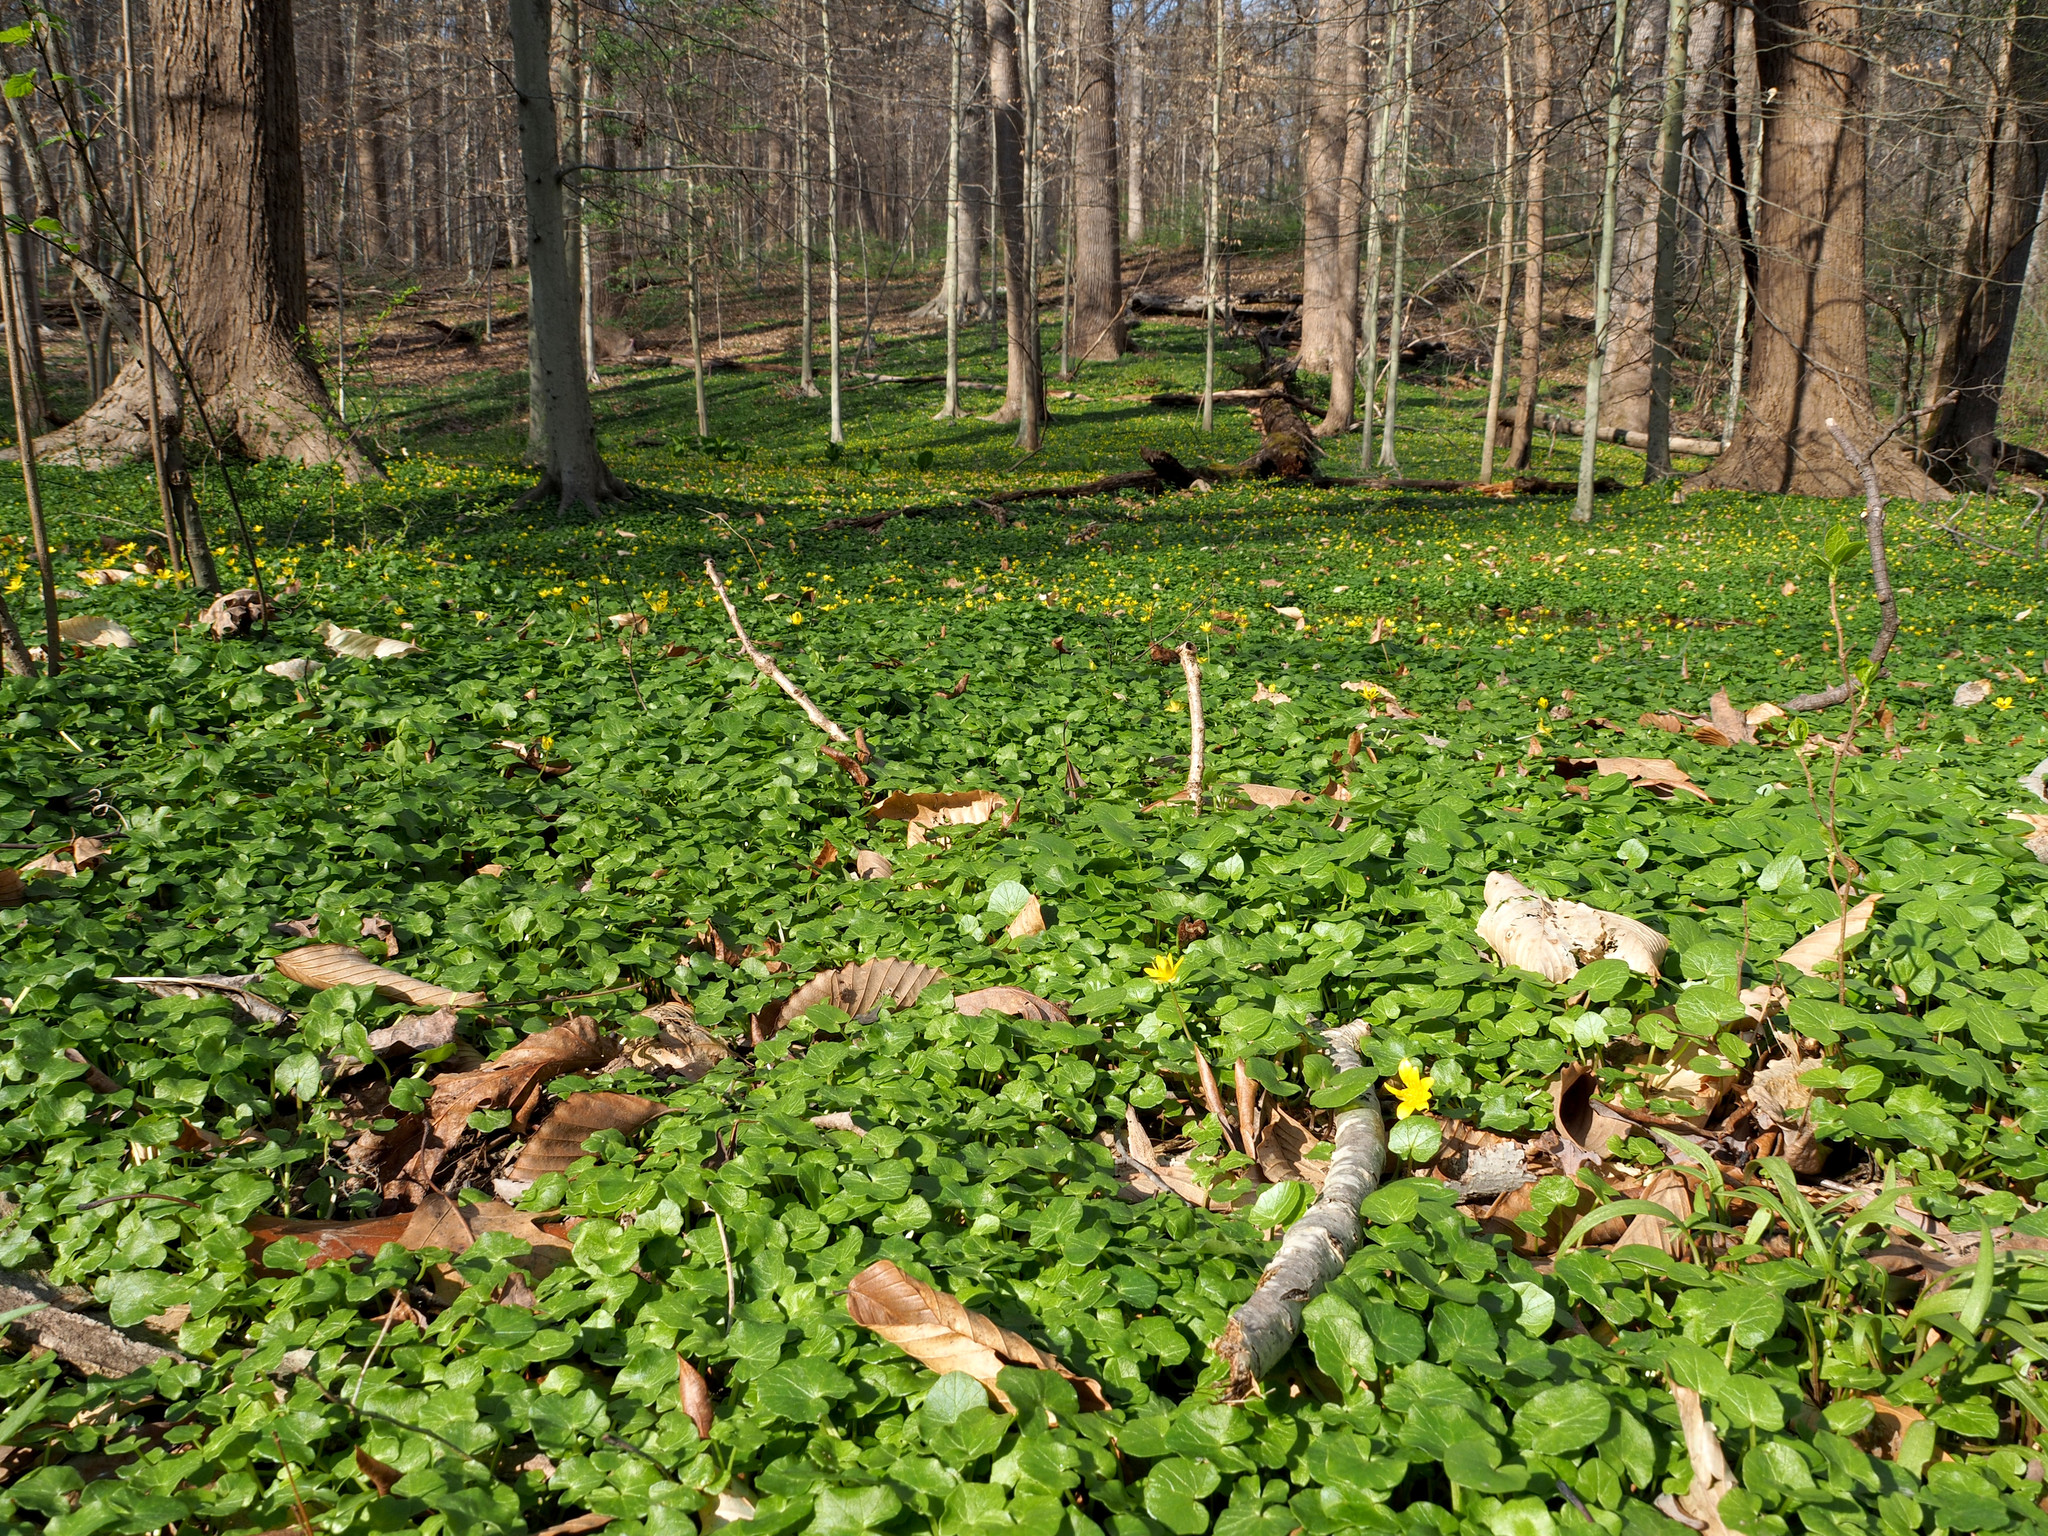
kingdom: Plantae
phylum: Tracheophyta
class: Magnoliopsida
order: Ranunculales
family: Ranunculaceae
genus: Ficaria
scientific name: Ficaria verna
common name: Lesser celandine
